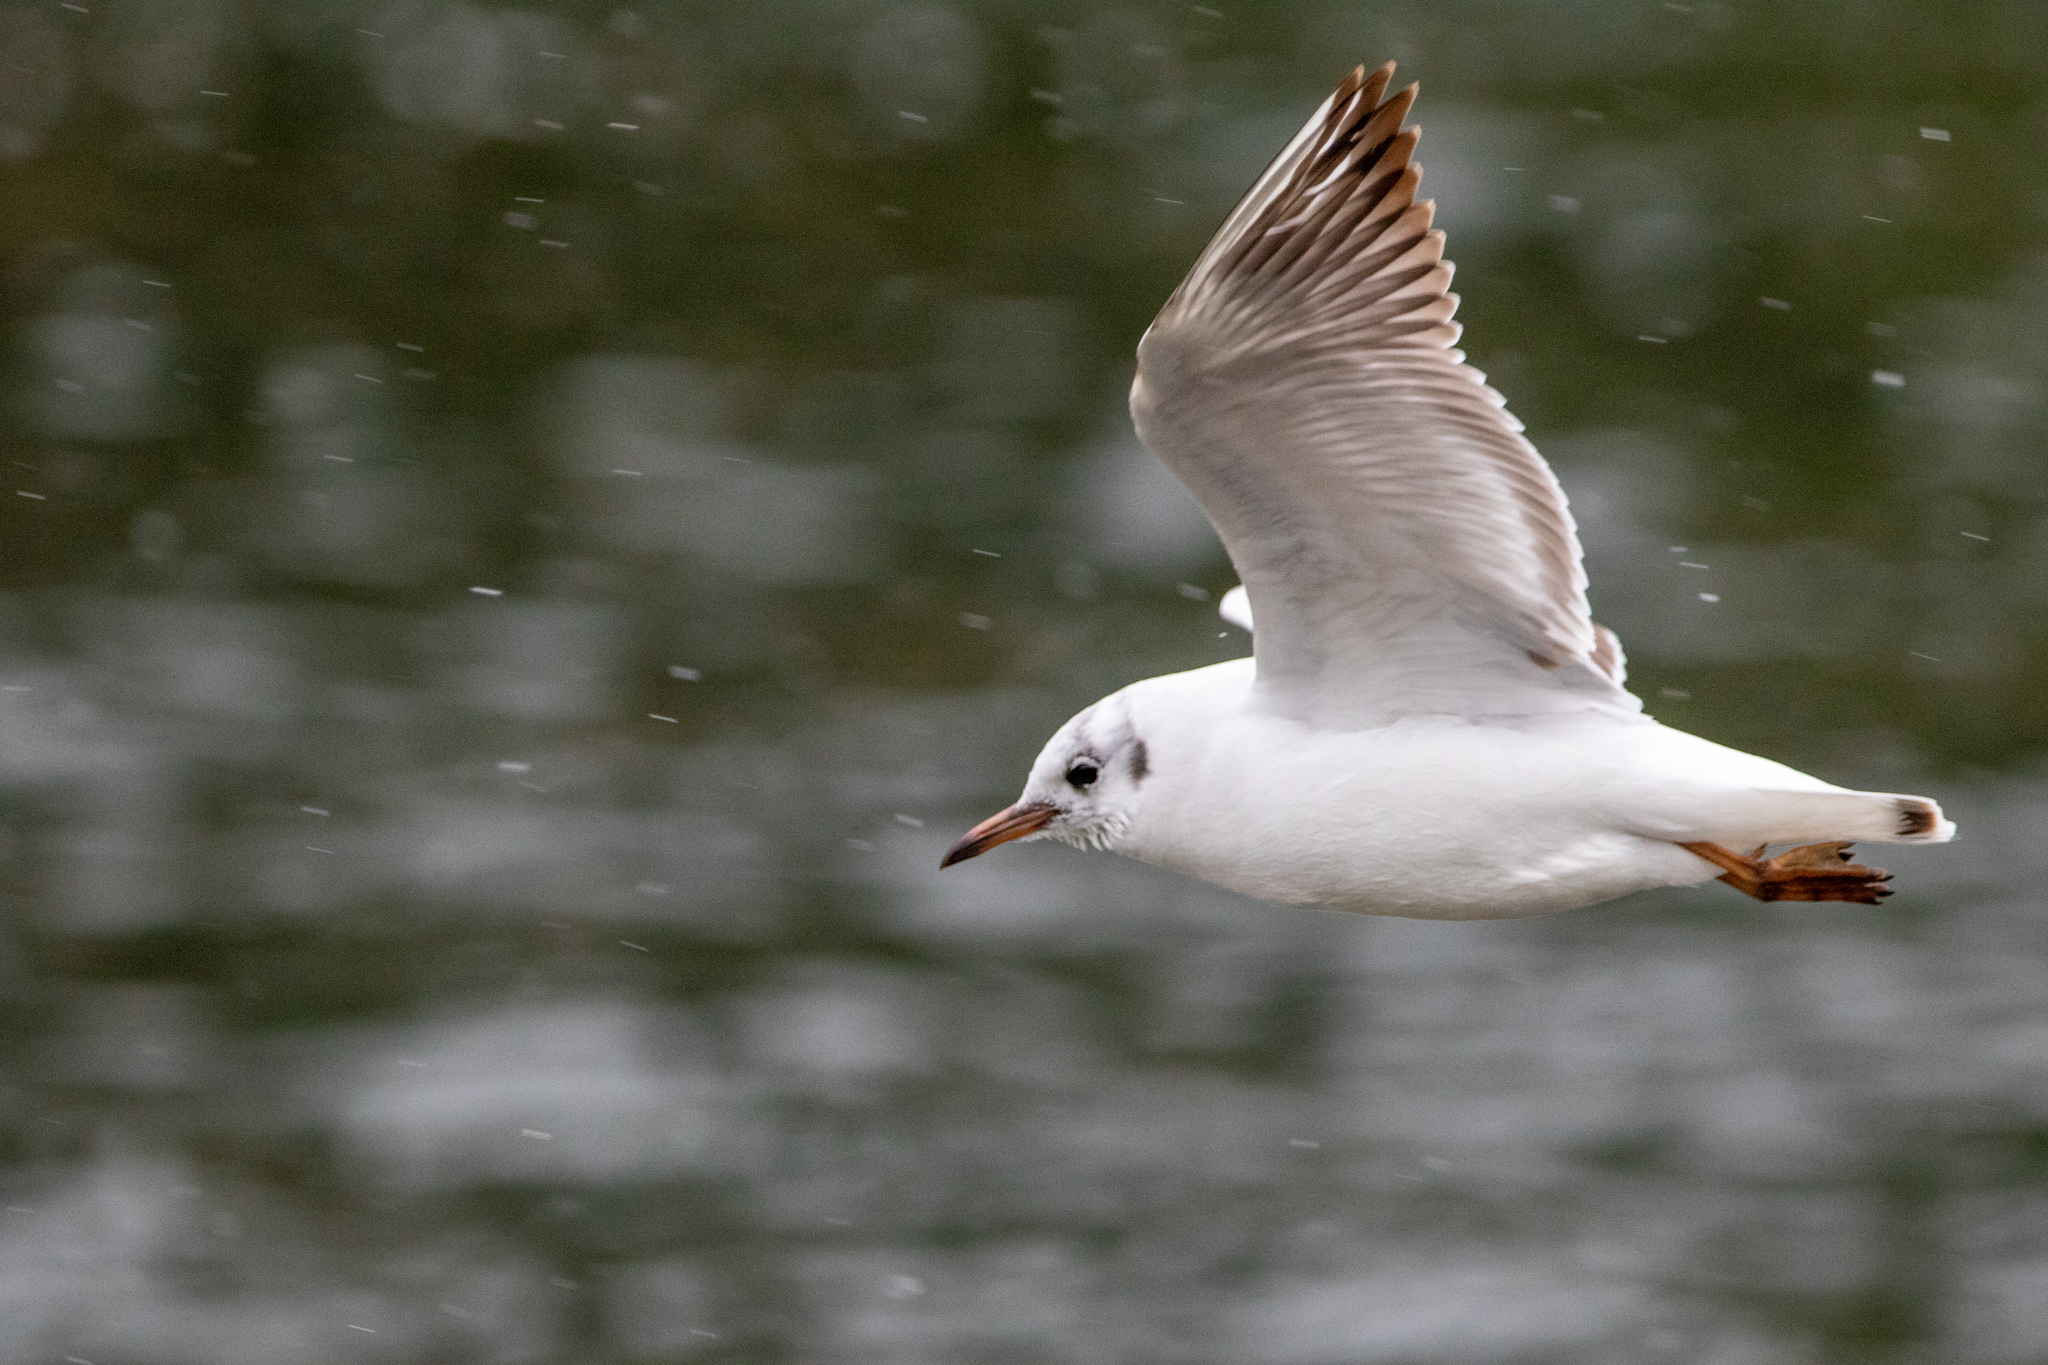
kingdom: Animalia
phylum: Chordata
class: Aves
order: Charadriiformes
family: Laridae
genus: Chroicocephalus
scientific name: Chroicocephalus ridibundus
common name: Black-headed gull
